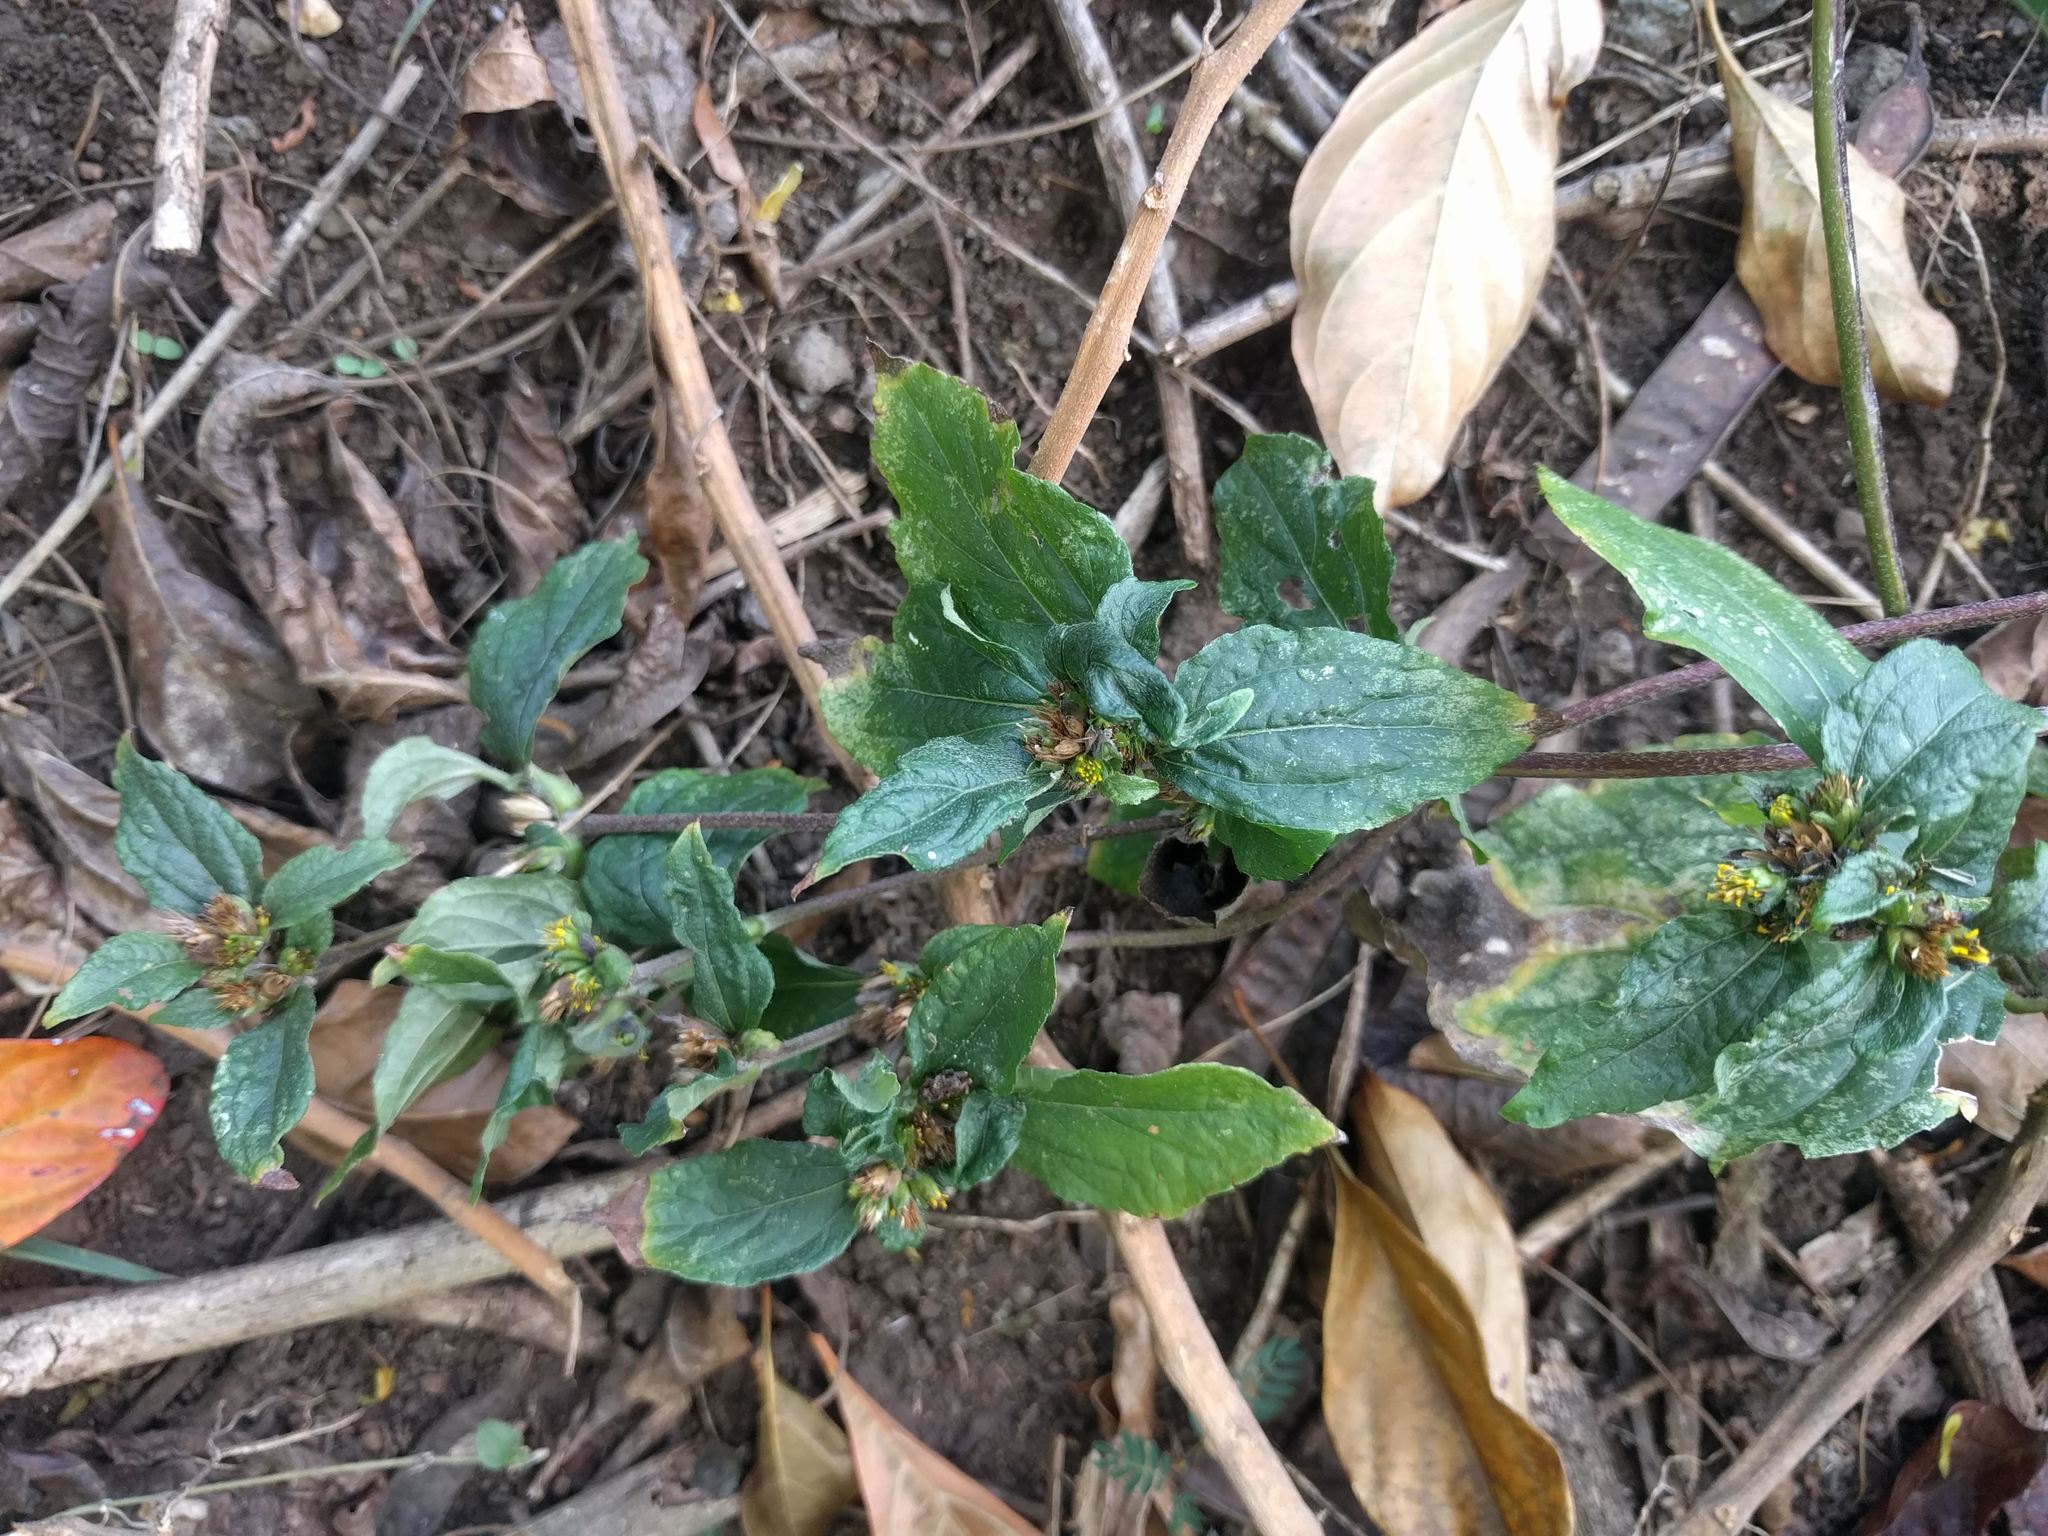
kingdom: Plantae
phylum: Tracheophyta
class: Magnoliopsida
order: Asterales
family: Asteraceae
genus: Synedrella
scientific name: Synedrella nodiflora
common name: Nodeweed
